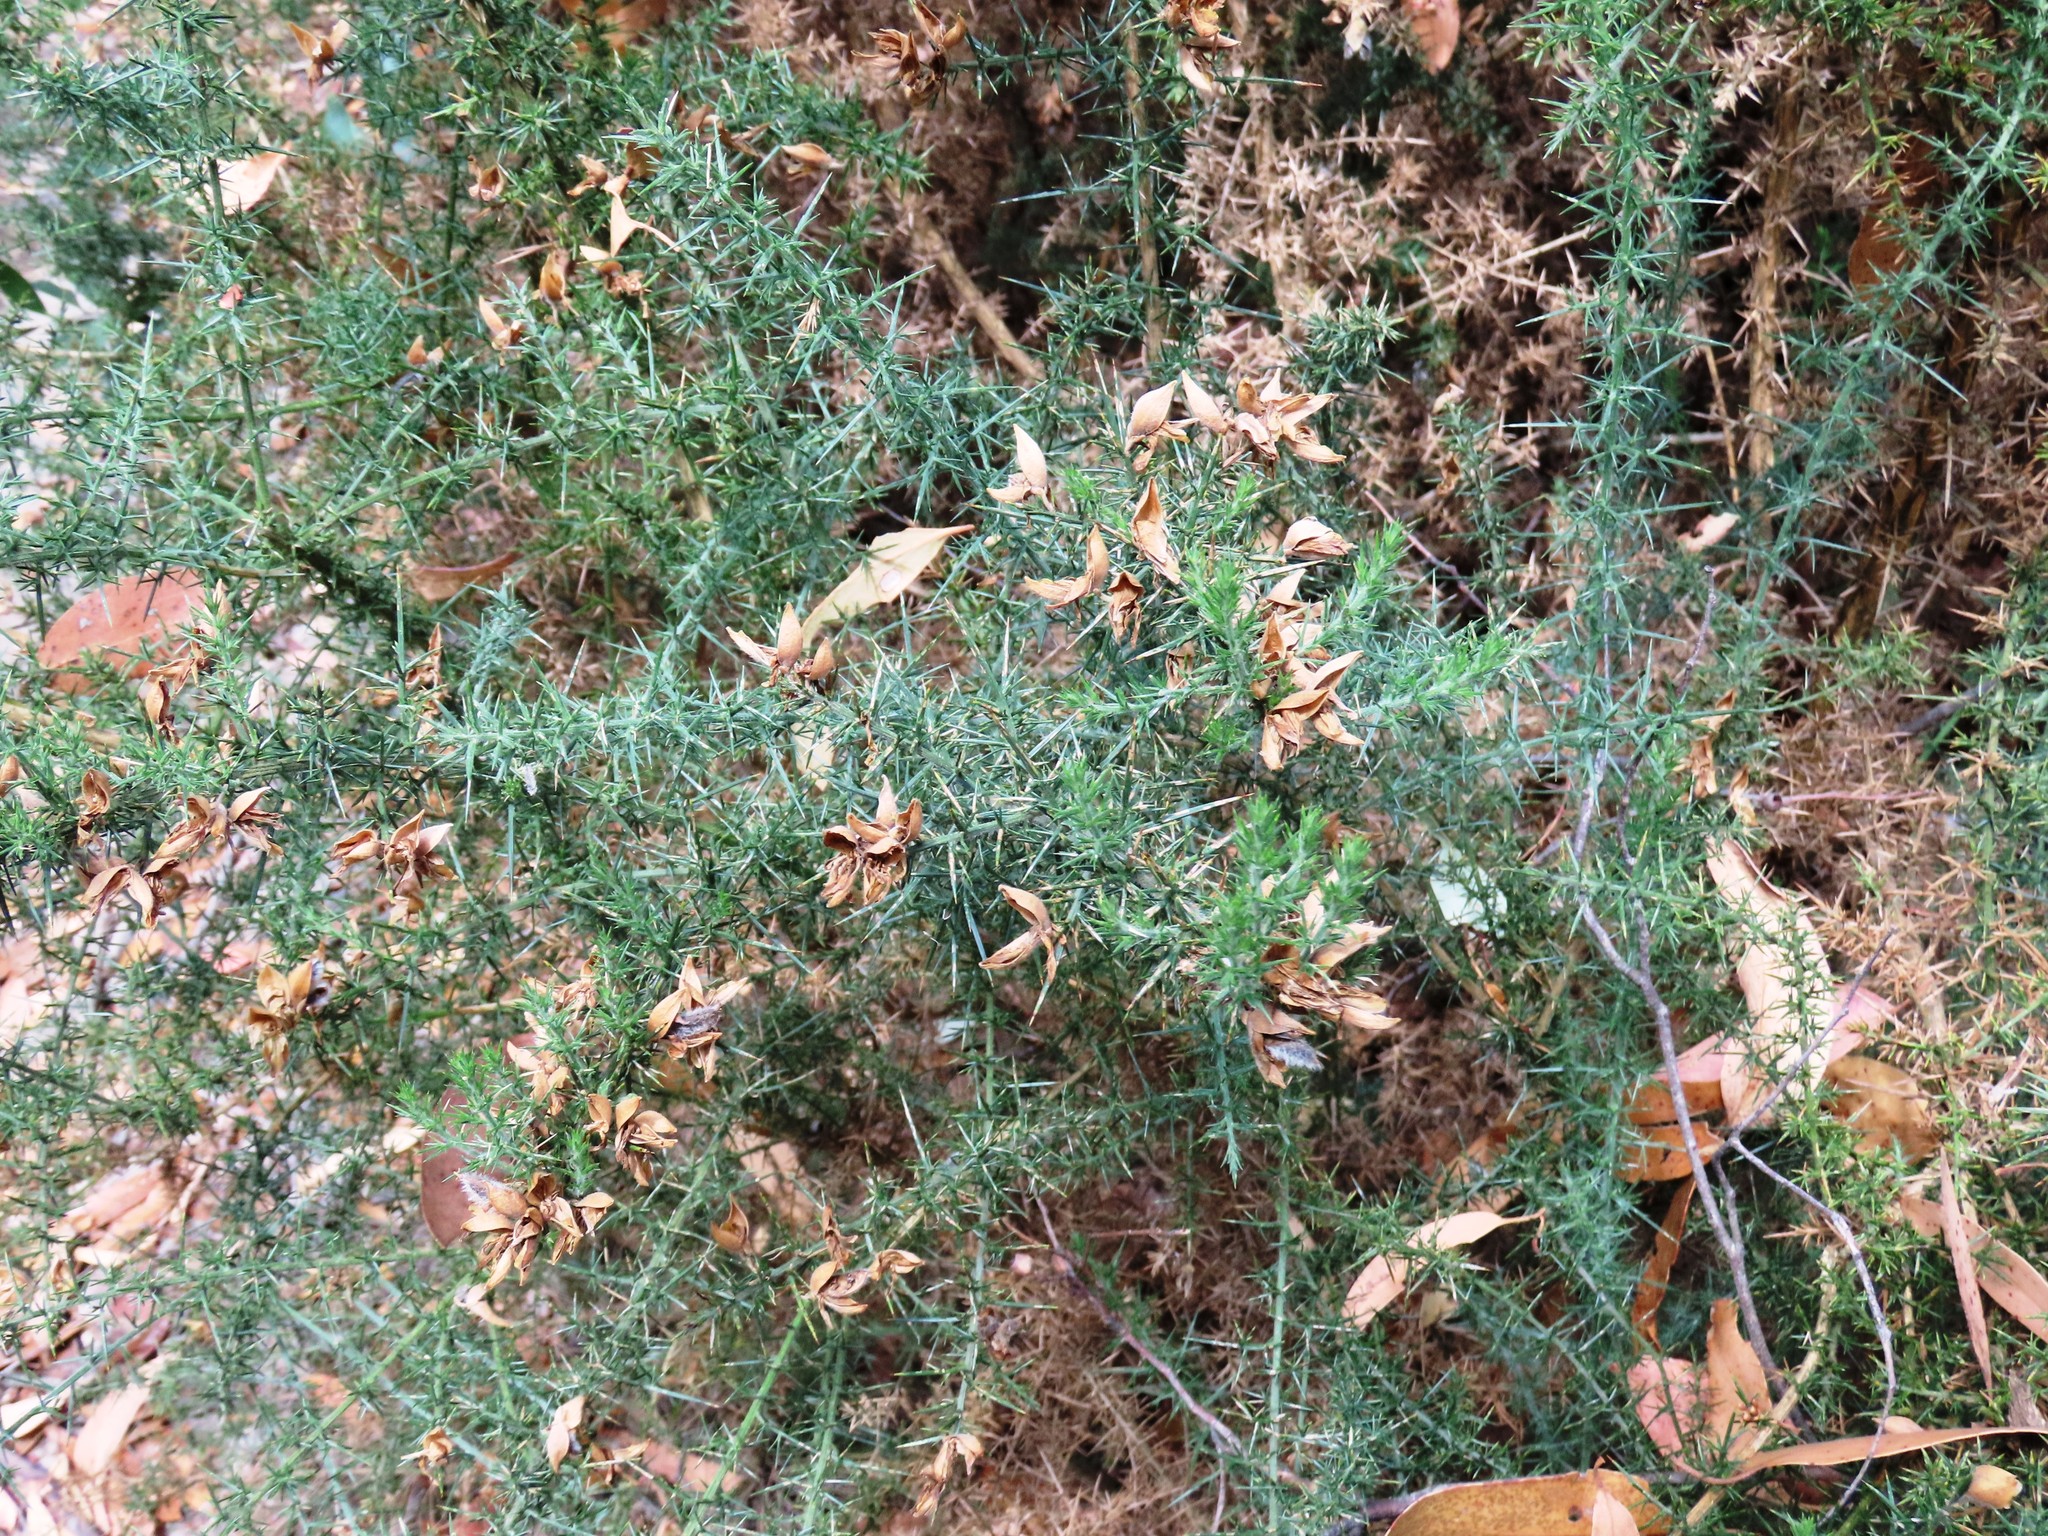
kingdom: Plantae
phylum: Tracheophyta
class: Magnoliopsida
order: Fabales
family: Fabaceae
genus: Ulex
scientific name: Ulex europaeus
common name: Common gorse
